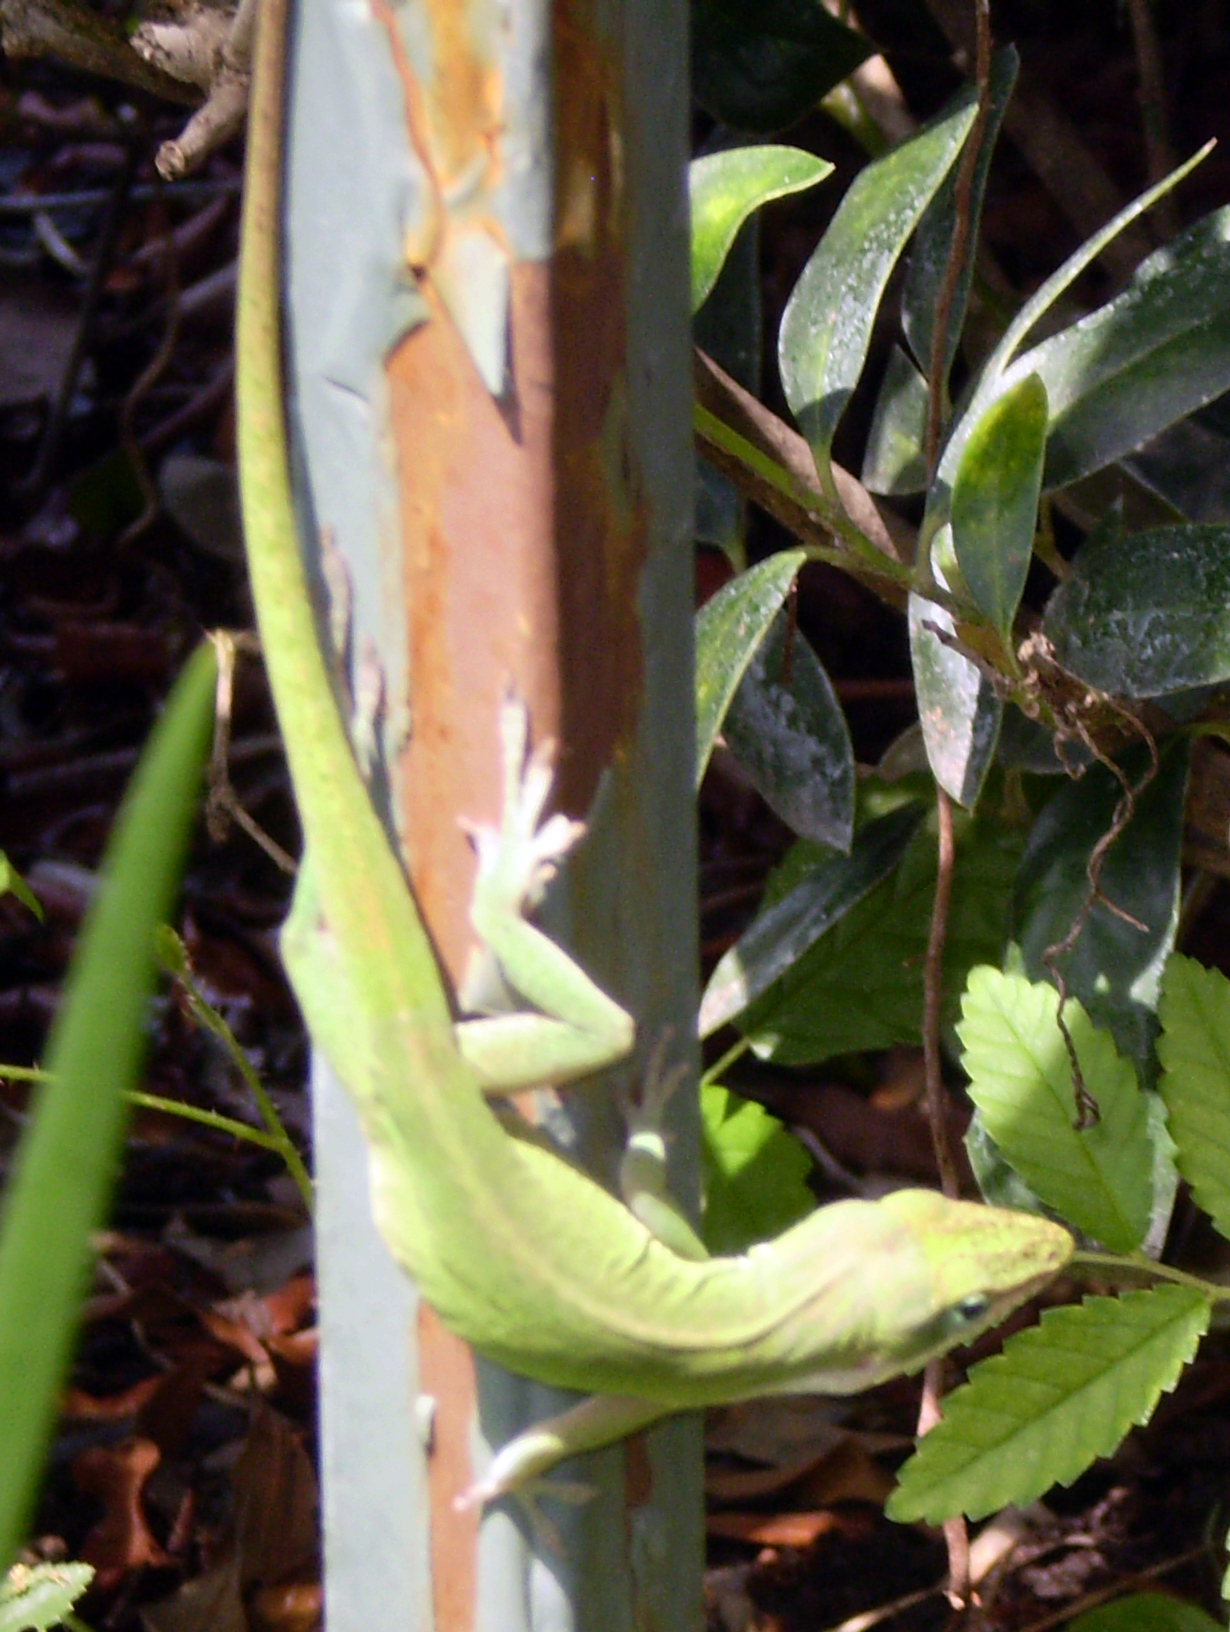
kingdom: Animalia
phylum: Chordata
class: Squamata
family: Dactyloidae
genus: Anolis
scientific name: Anolis carolinensis
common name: Green anole
